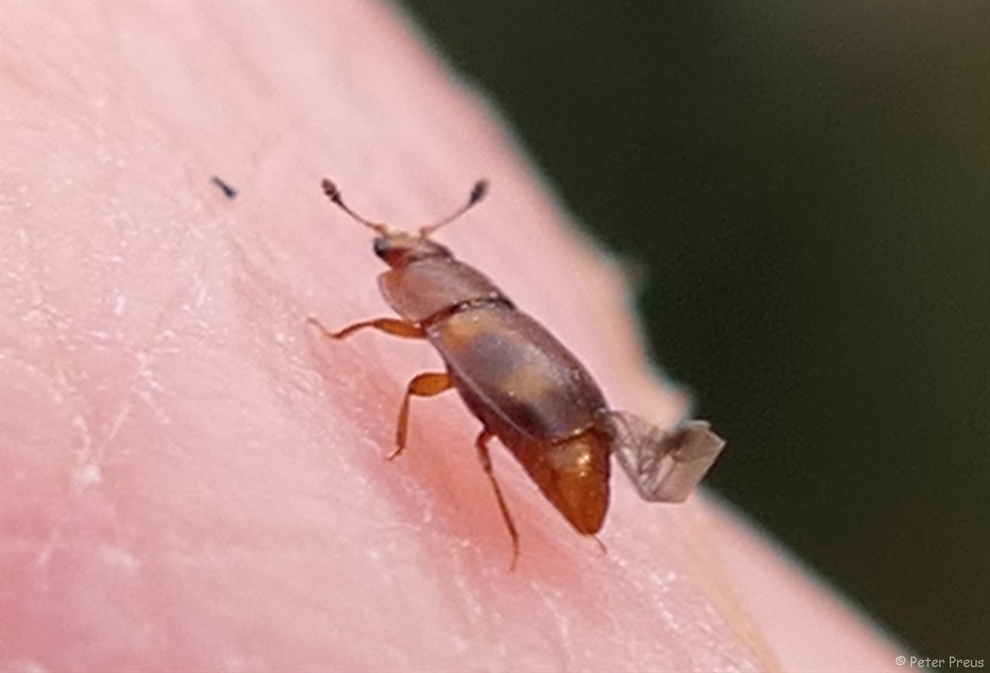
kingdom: Animalia
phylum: Arthropoda
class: Insecta
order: Coleoptera
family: Nitidulidae
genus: Epuraea
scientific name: Epuraea ocularis
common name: Sap beetle
